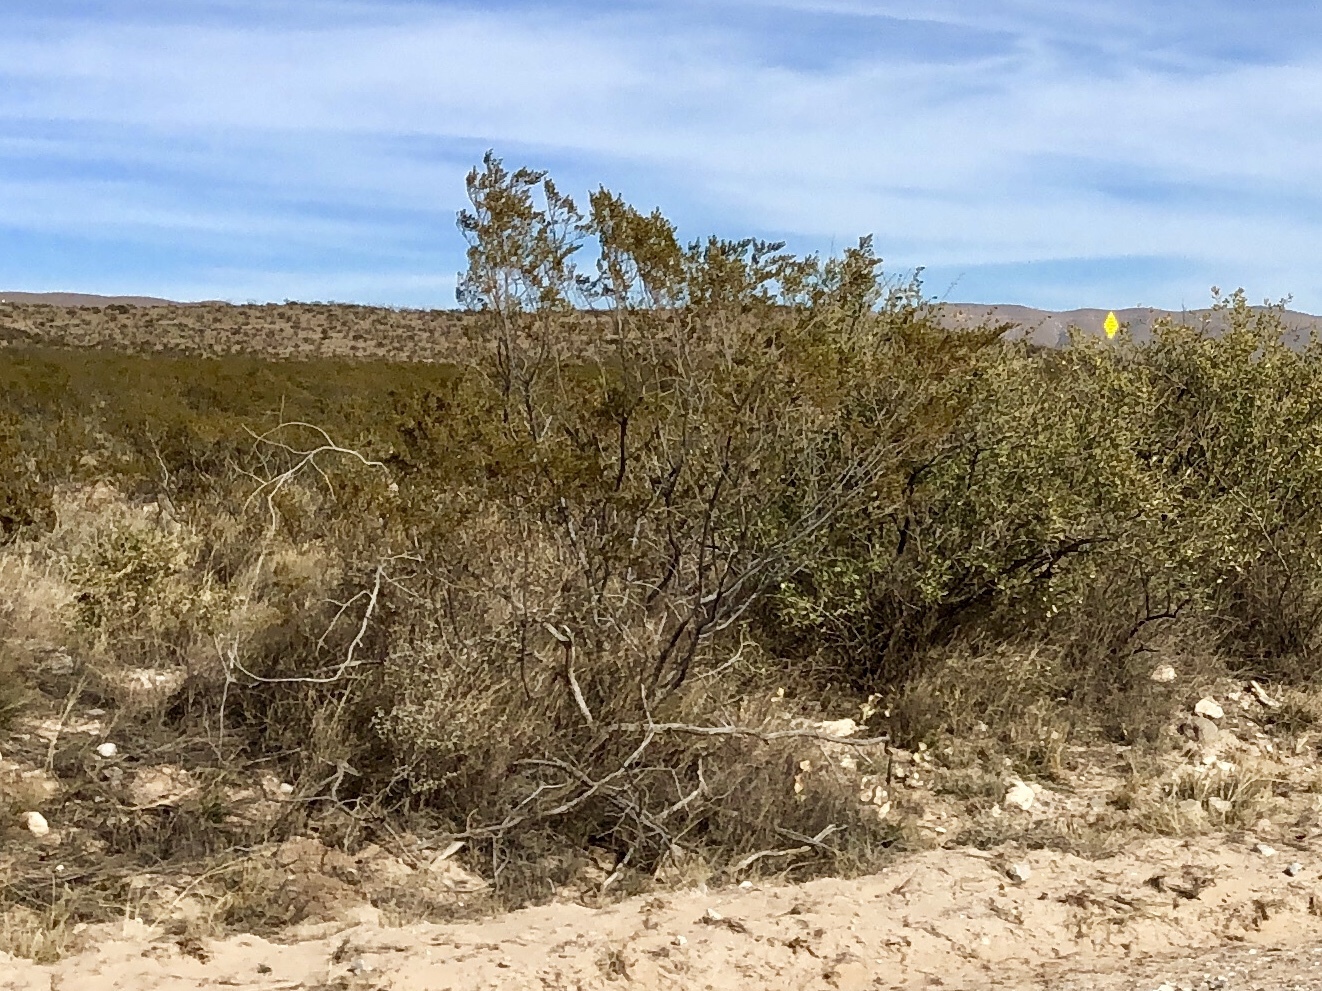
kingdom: Plantae
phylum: Tracheophyta
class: Magnoliopsida
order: Zygophyllales
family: Zygophyllaceae
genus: Larrea
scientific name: Larrea tridentata
